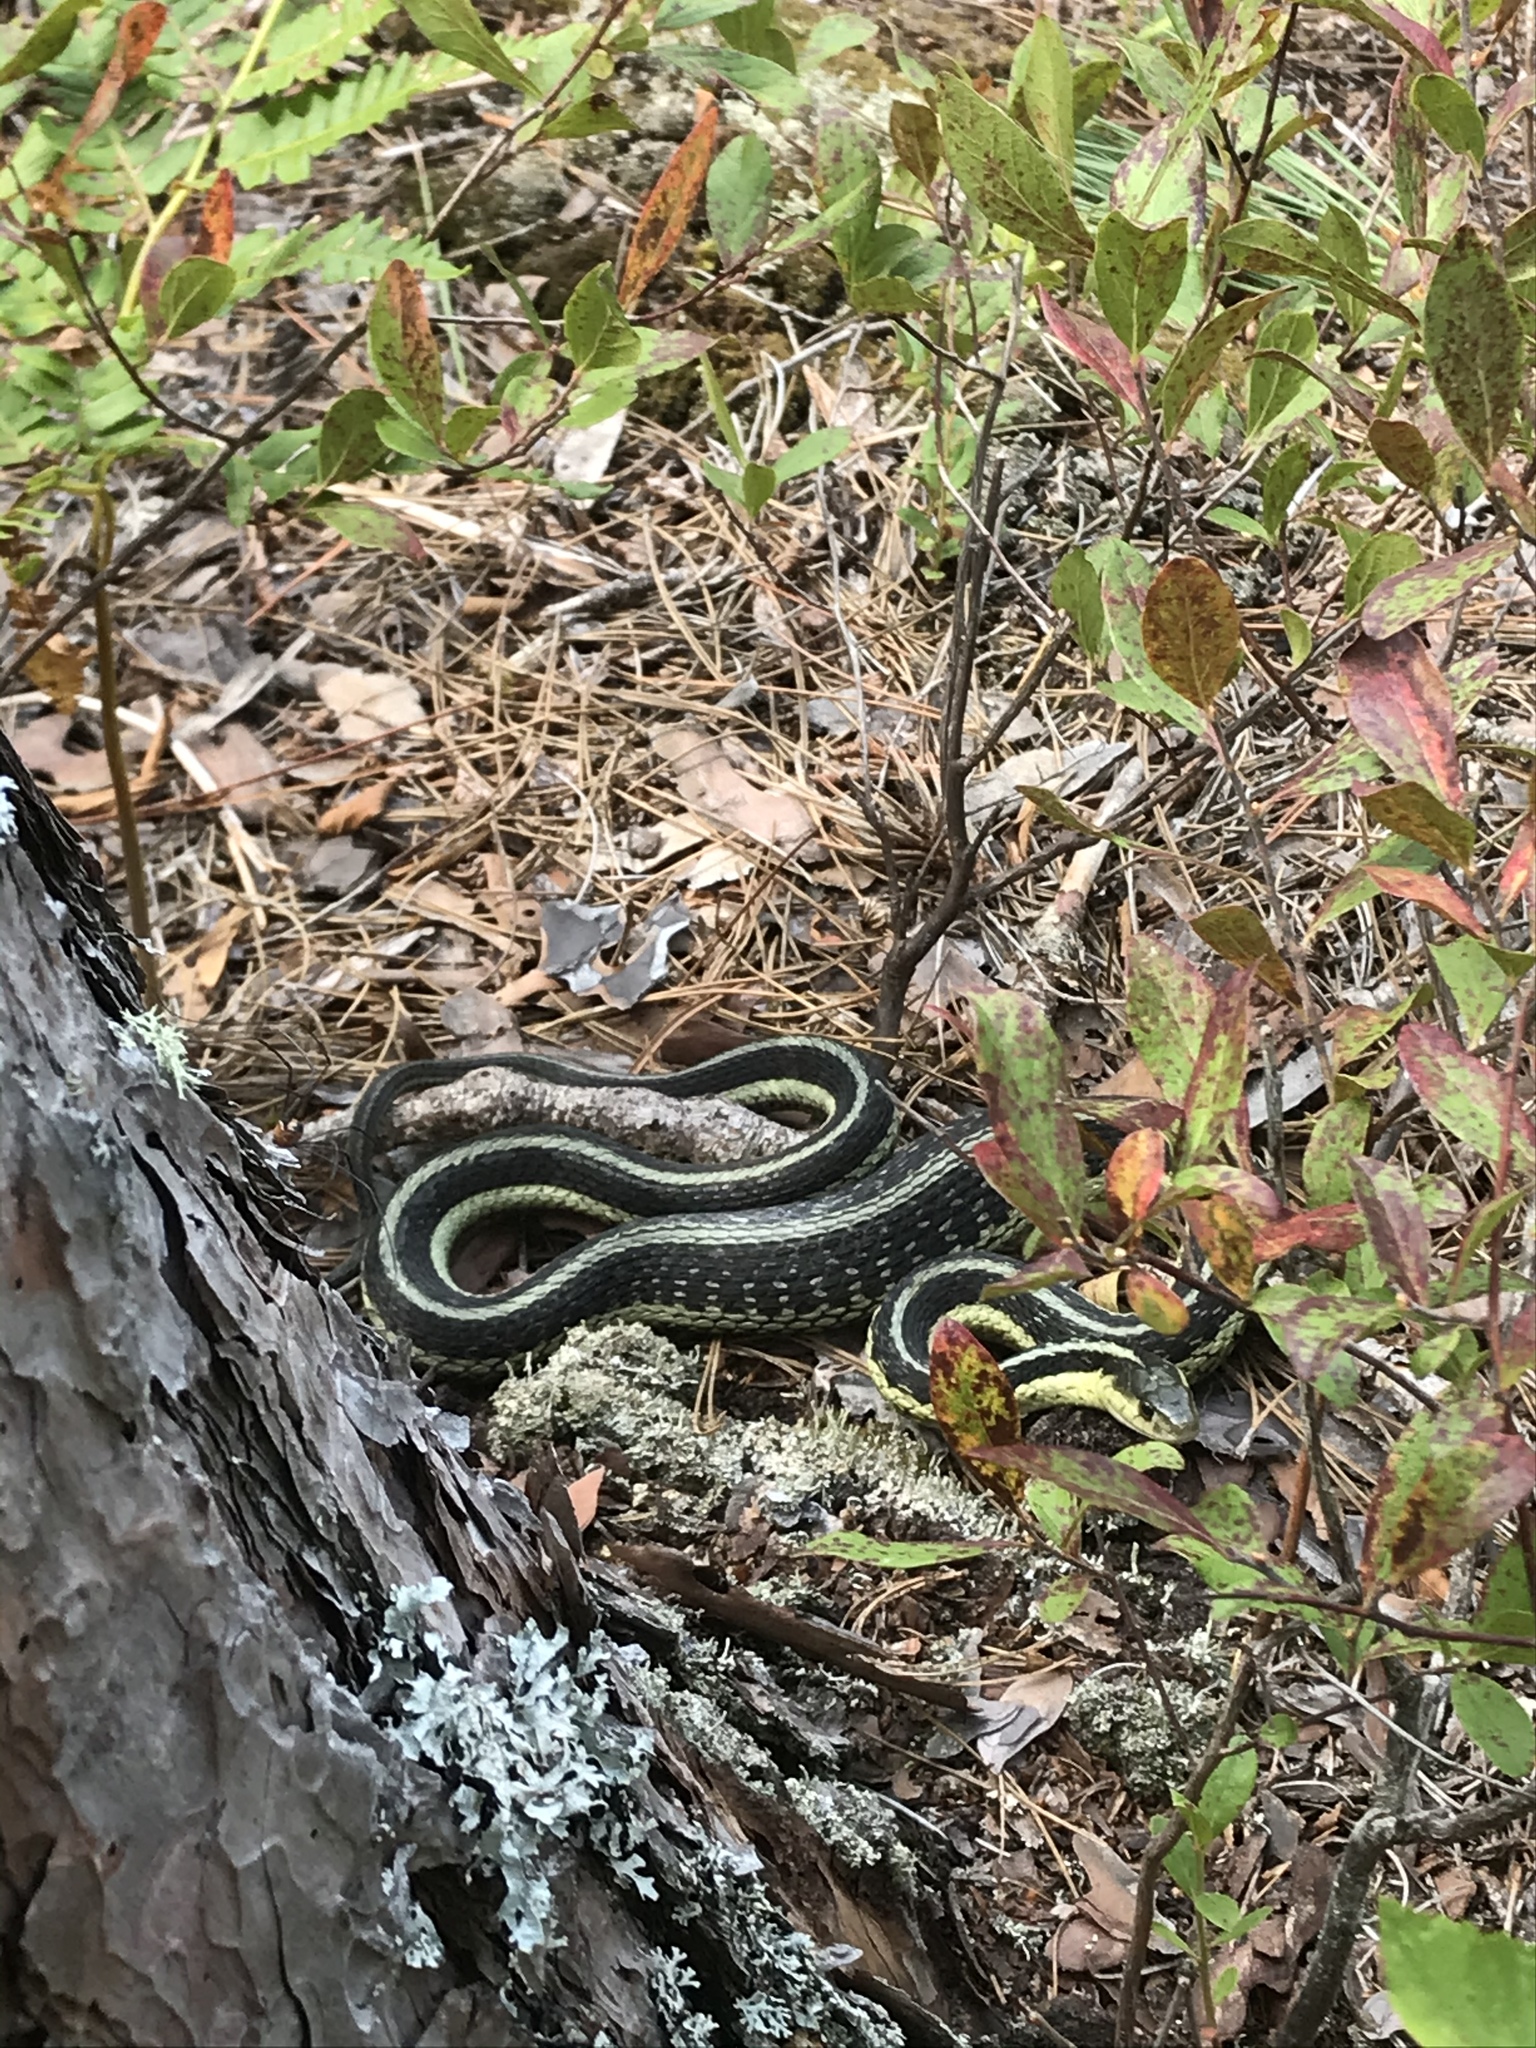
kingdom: Animalia
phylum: Chordata
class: Squamata
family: Colubridae
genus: Thamnophis
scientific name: Thamnophis sirtalis
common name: Common garter snake
